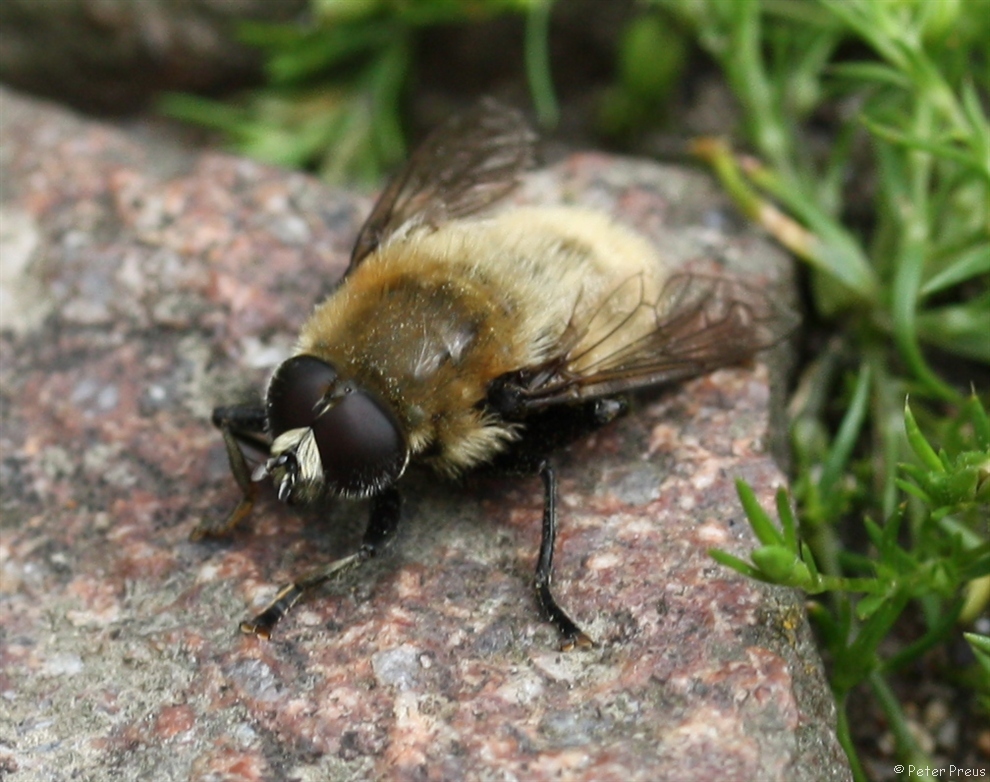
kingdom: Animalia
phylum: Arthropoda
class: Insecta
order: Diptera
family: Syrphidae
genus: Merodon
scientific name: Merodon equestris
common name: Greater bulb-fly
